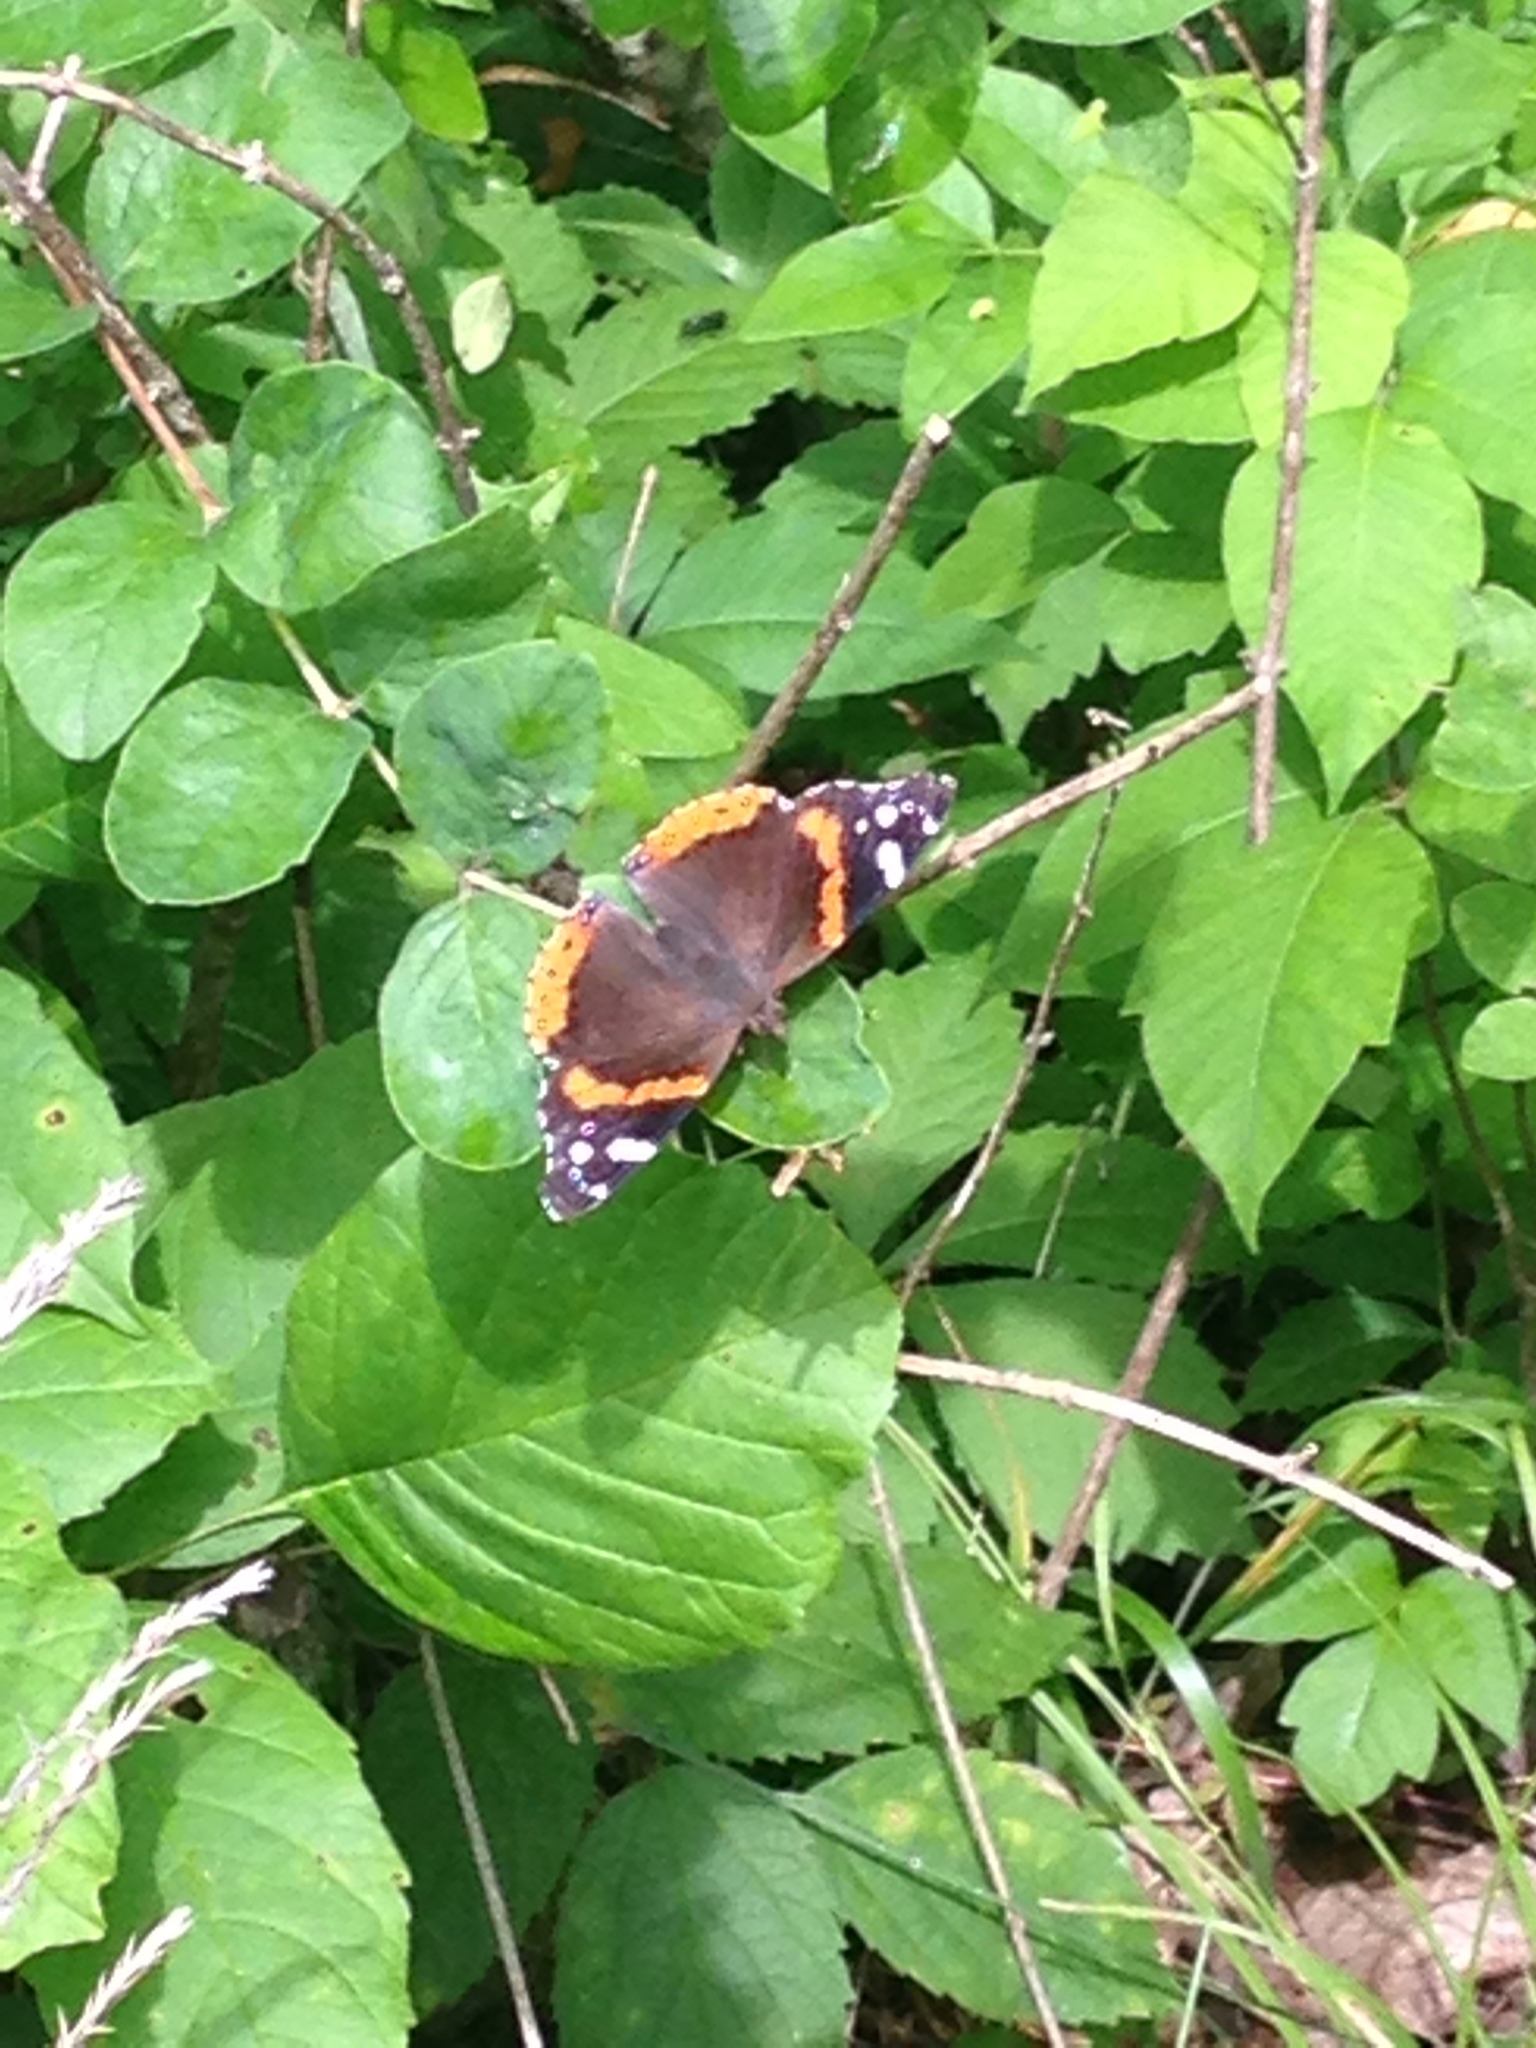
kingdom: Animalia
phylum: Arthropoda
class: Insecta
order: Lepidoptera
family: Nymphalidae
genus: Vanessa
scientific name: Vanessa atalanta
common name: Red admiral
